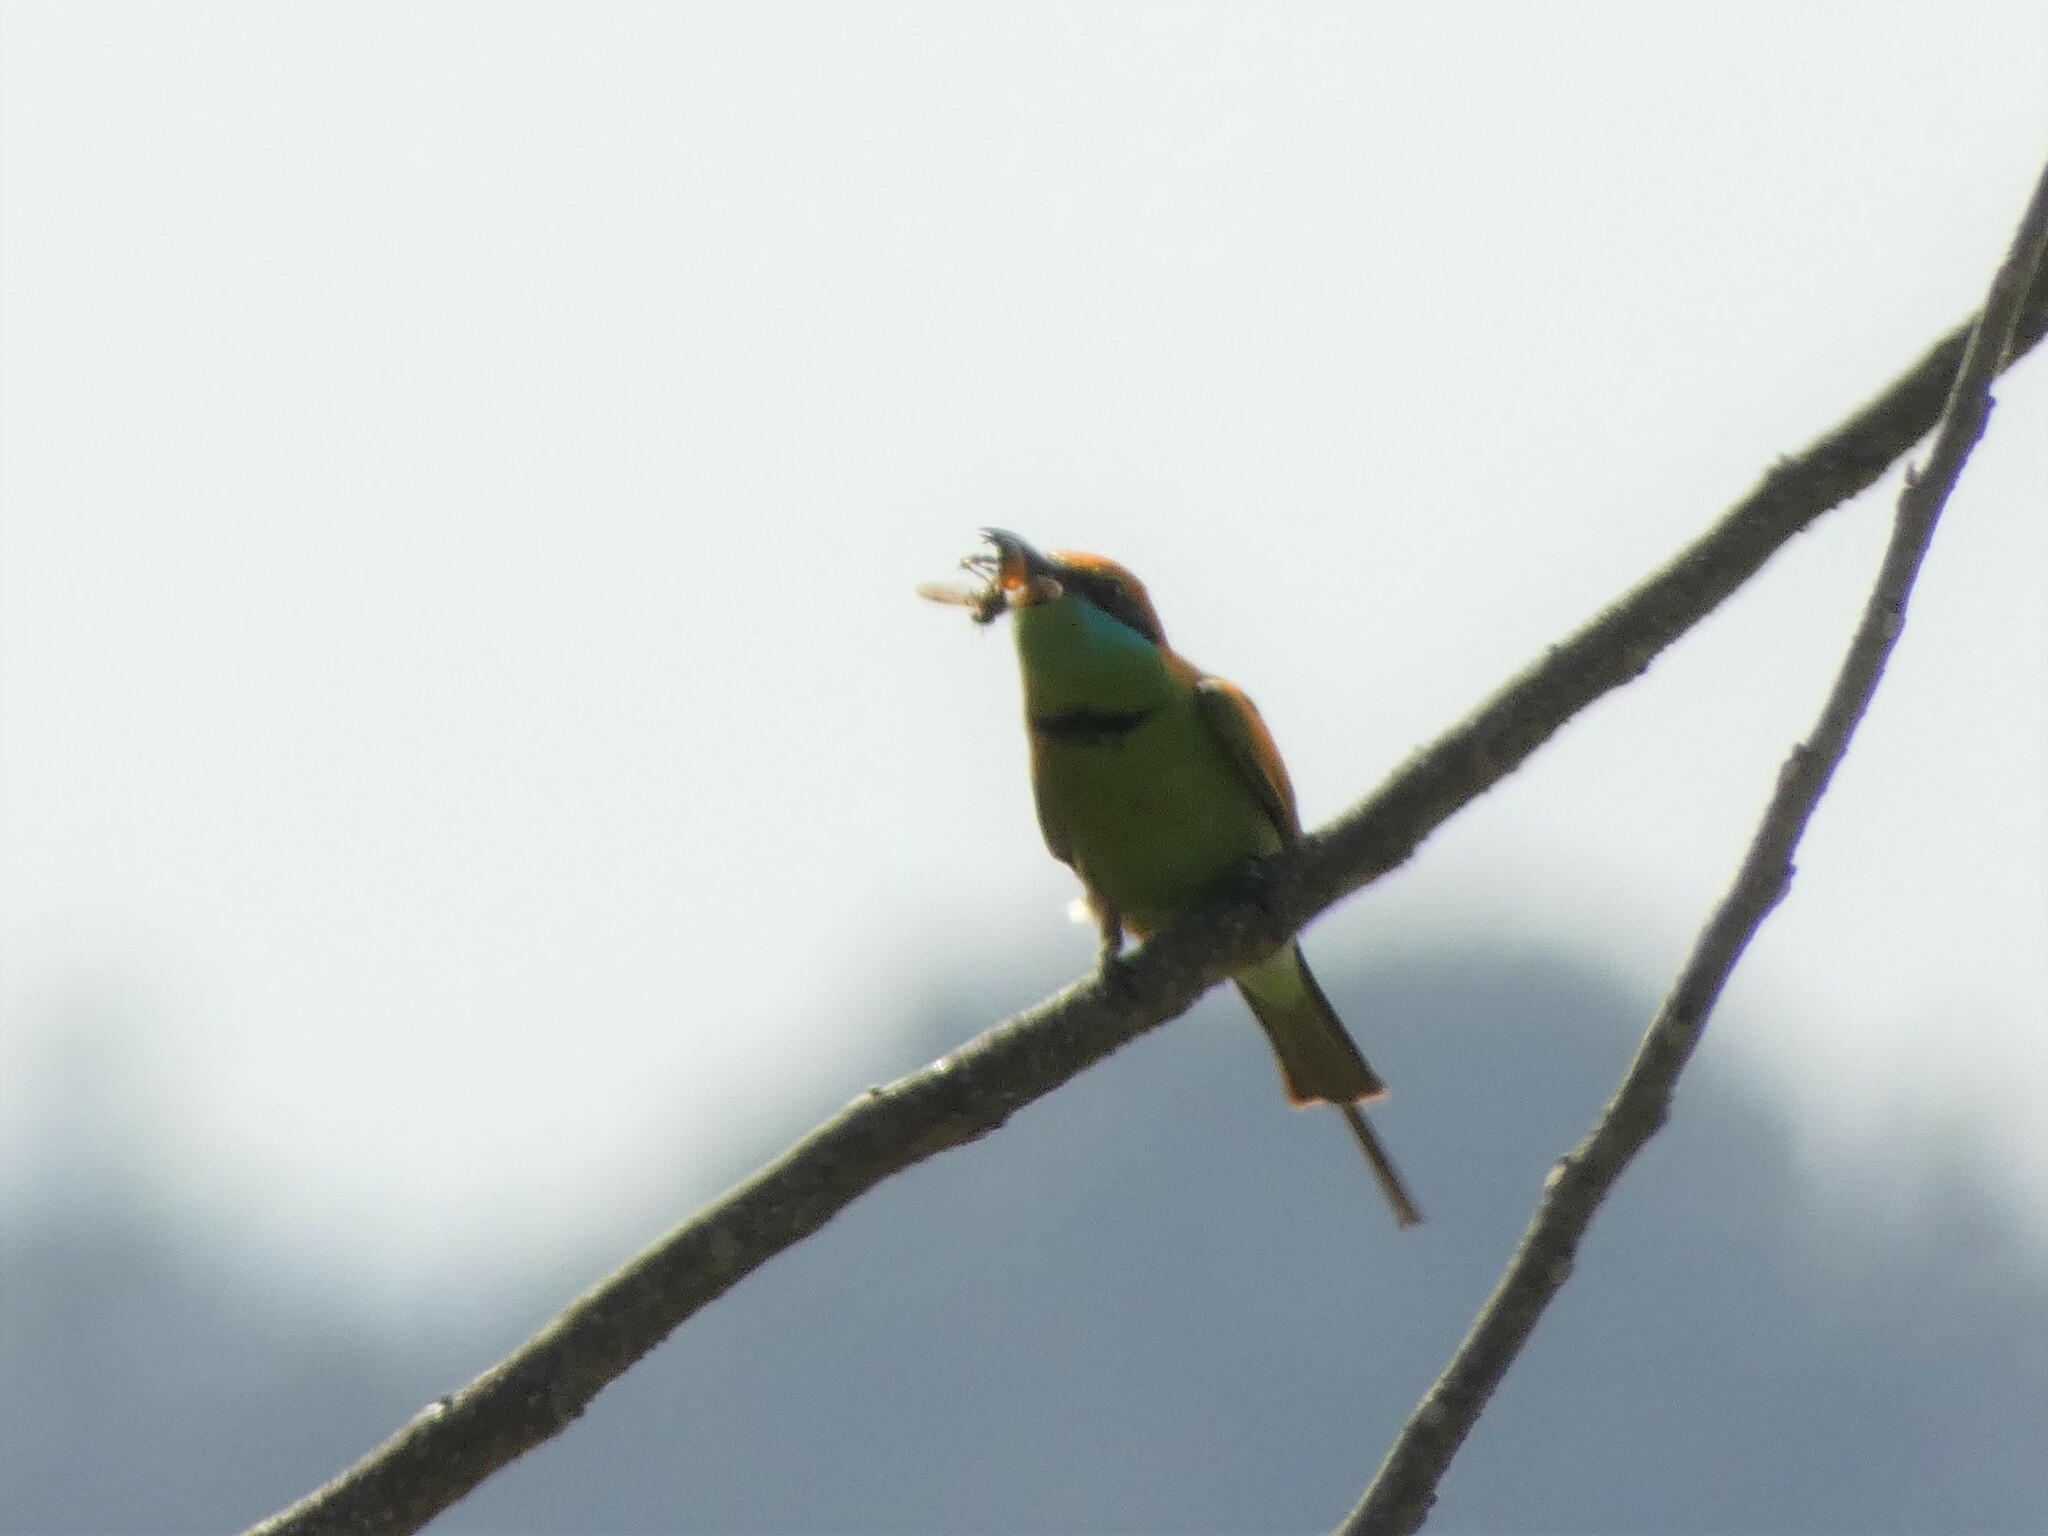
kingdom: Animalia
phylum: Chordata
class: Aves
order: Coraciiformes
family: Meropidae
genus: Merops
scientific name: Merops orientalis
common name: Green bee-eater
